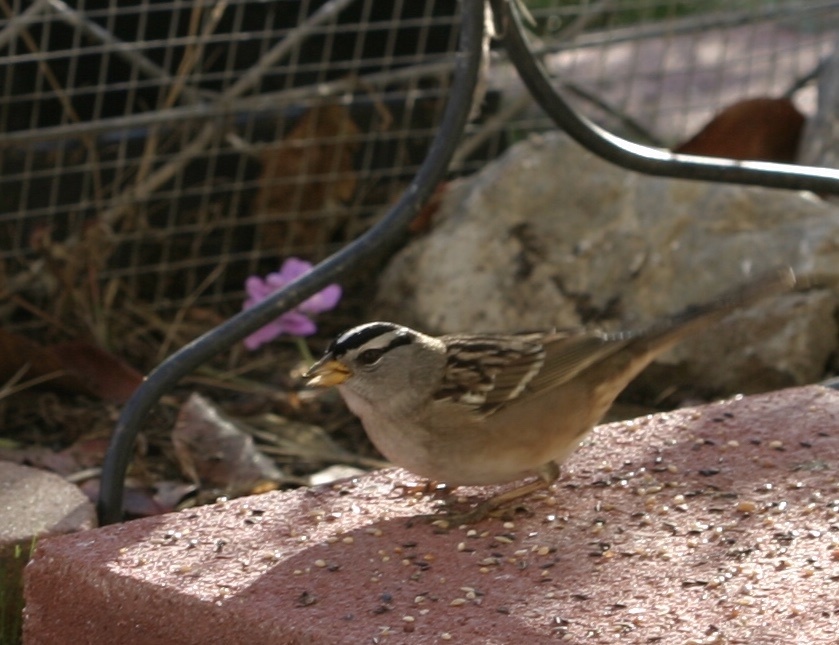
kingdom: Animalia
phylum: Chordata
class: Aves
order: Passeriformes
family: Passerellidae
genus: Zonotrichia
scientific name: Zonotrichia leucophrys
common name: White-crowned sparrow
